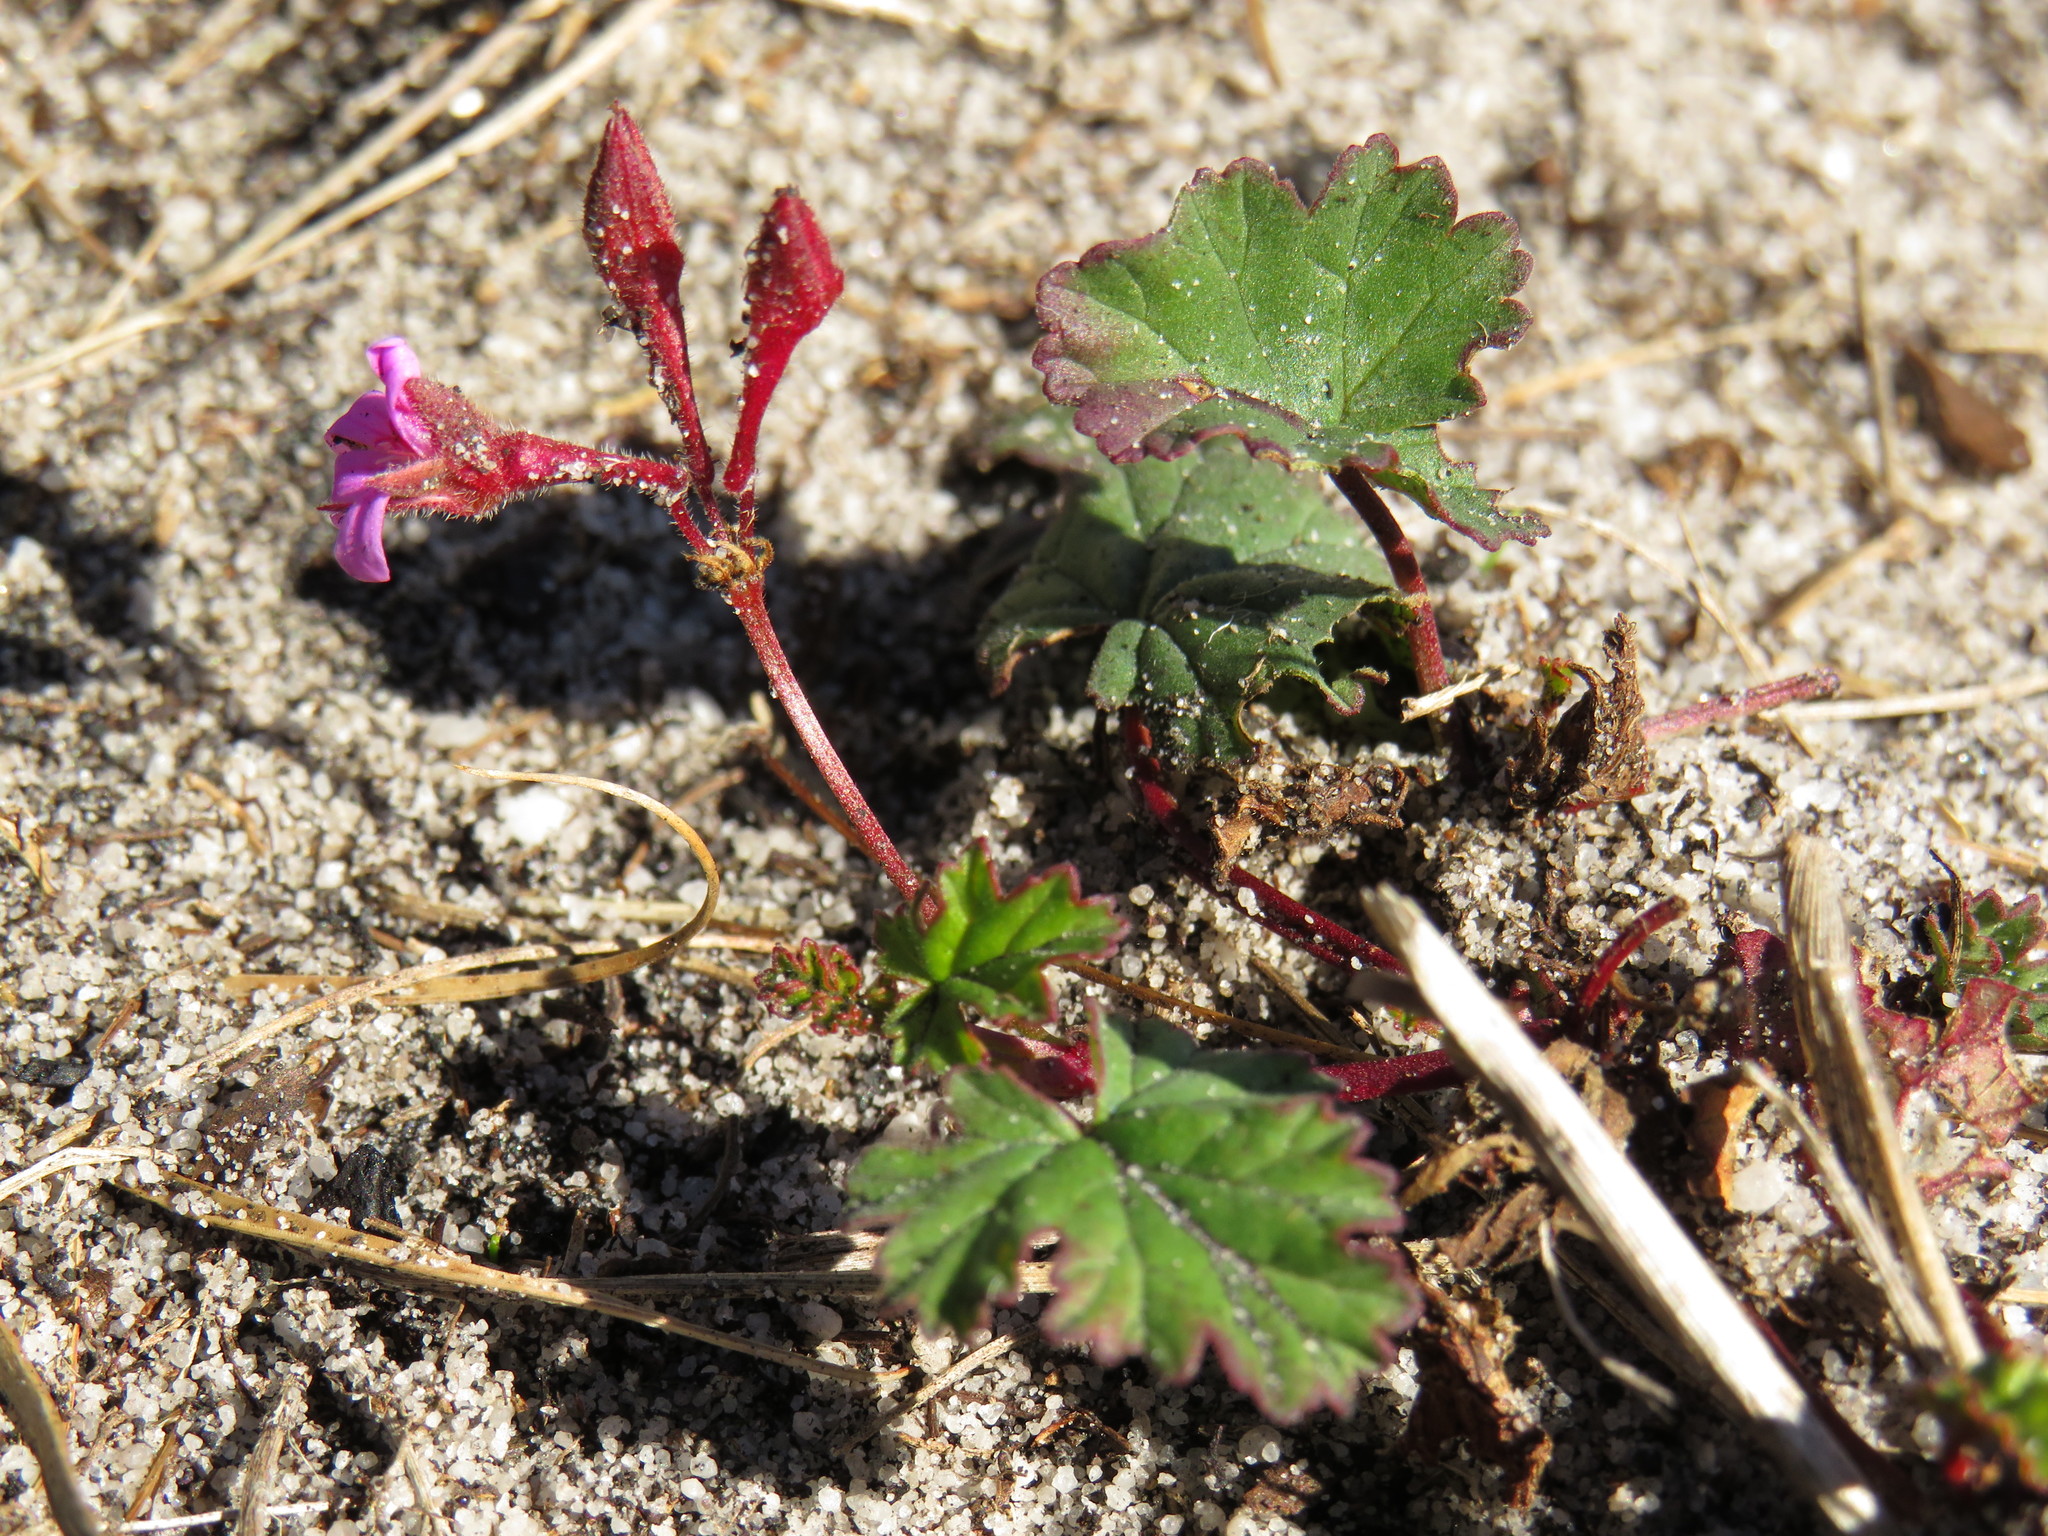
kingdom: Plantae
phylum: Tracheophyta
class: Magnoliopsida
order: Geraniales
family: Geraniaceae
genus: Pelargonium
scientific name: Pelargonium grossularioides
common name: Gooseberry geranium
